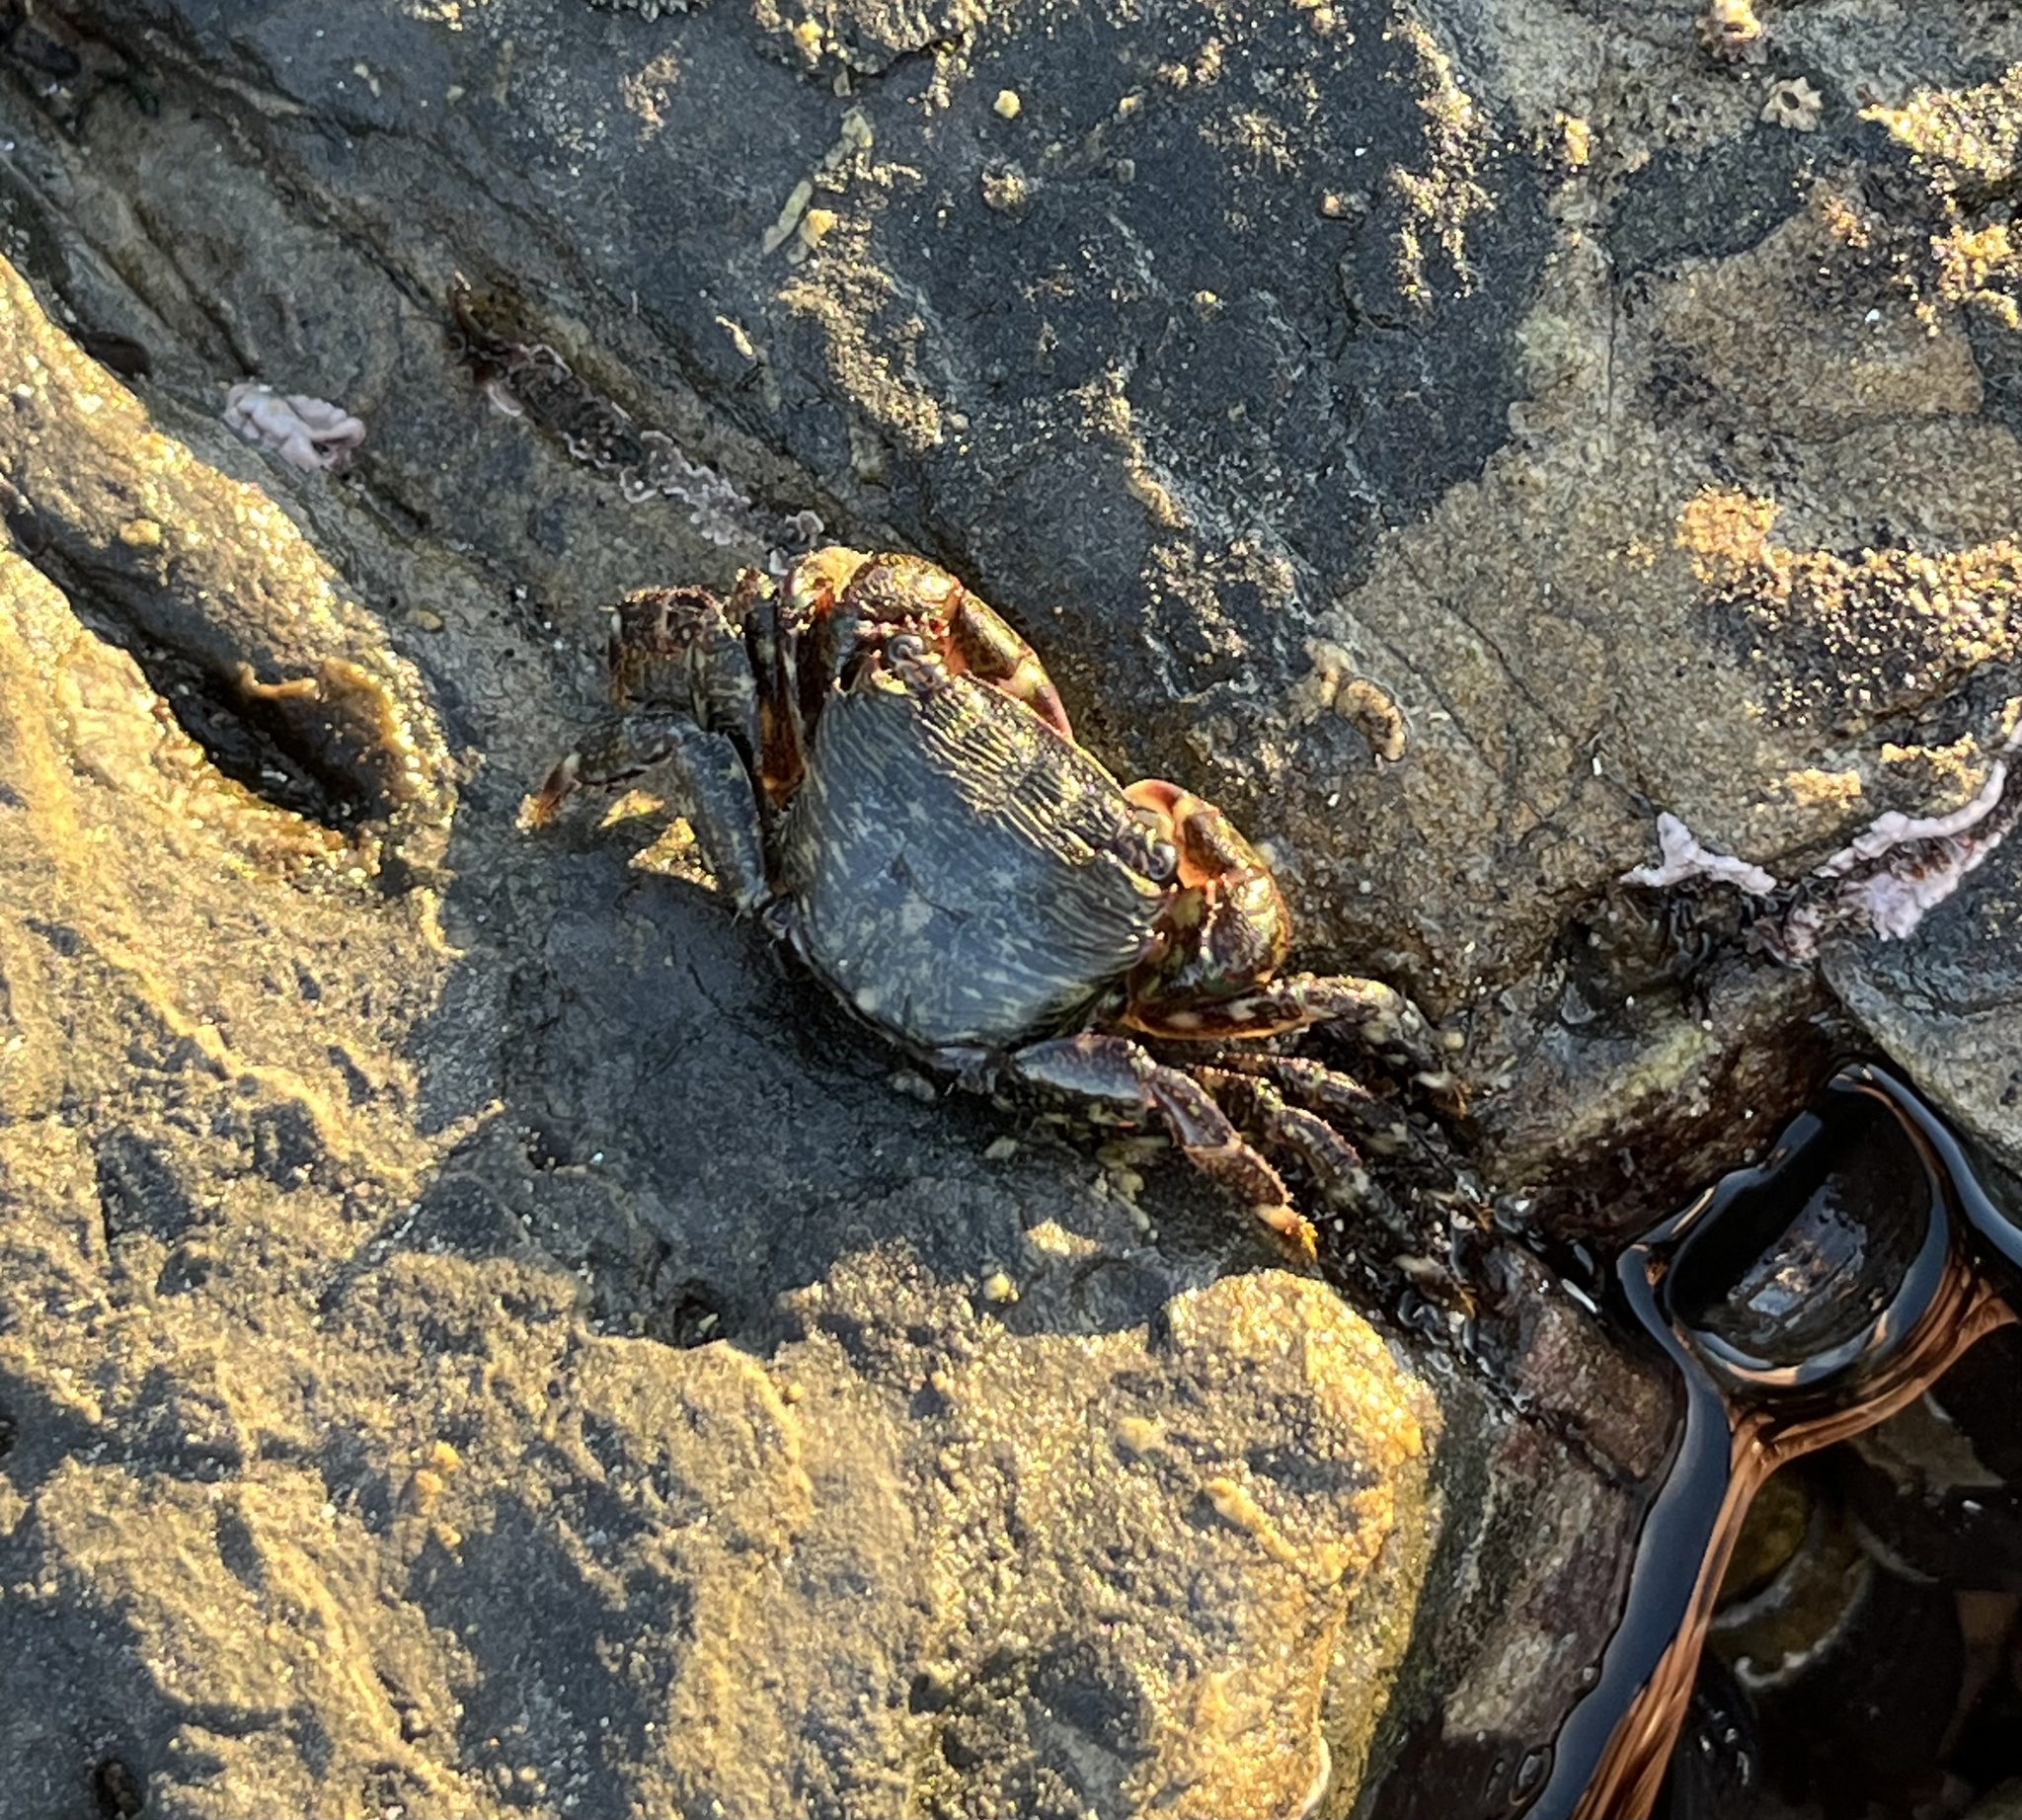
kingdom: Animalia
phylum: Arthropoda
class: Malacostraca
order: Decapoda
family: Grapsidae
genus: Pachygrapsus
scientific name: Pachygrapsus crassipes
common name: Striped shore crab
